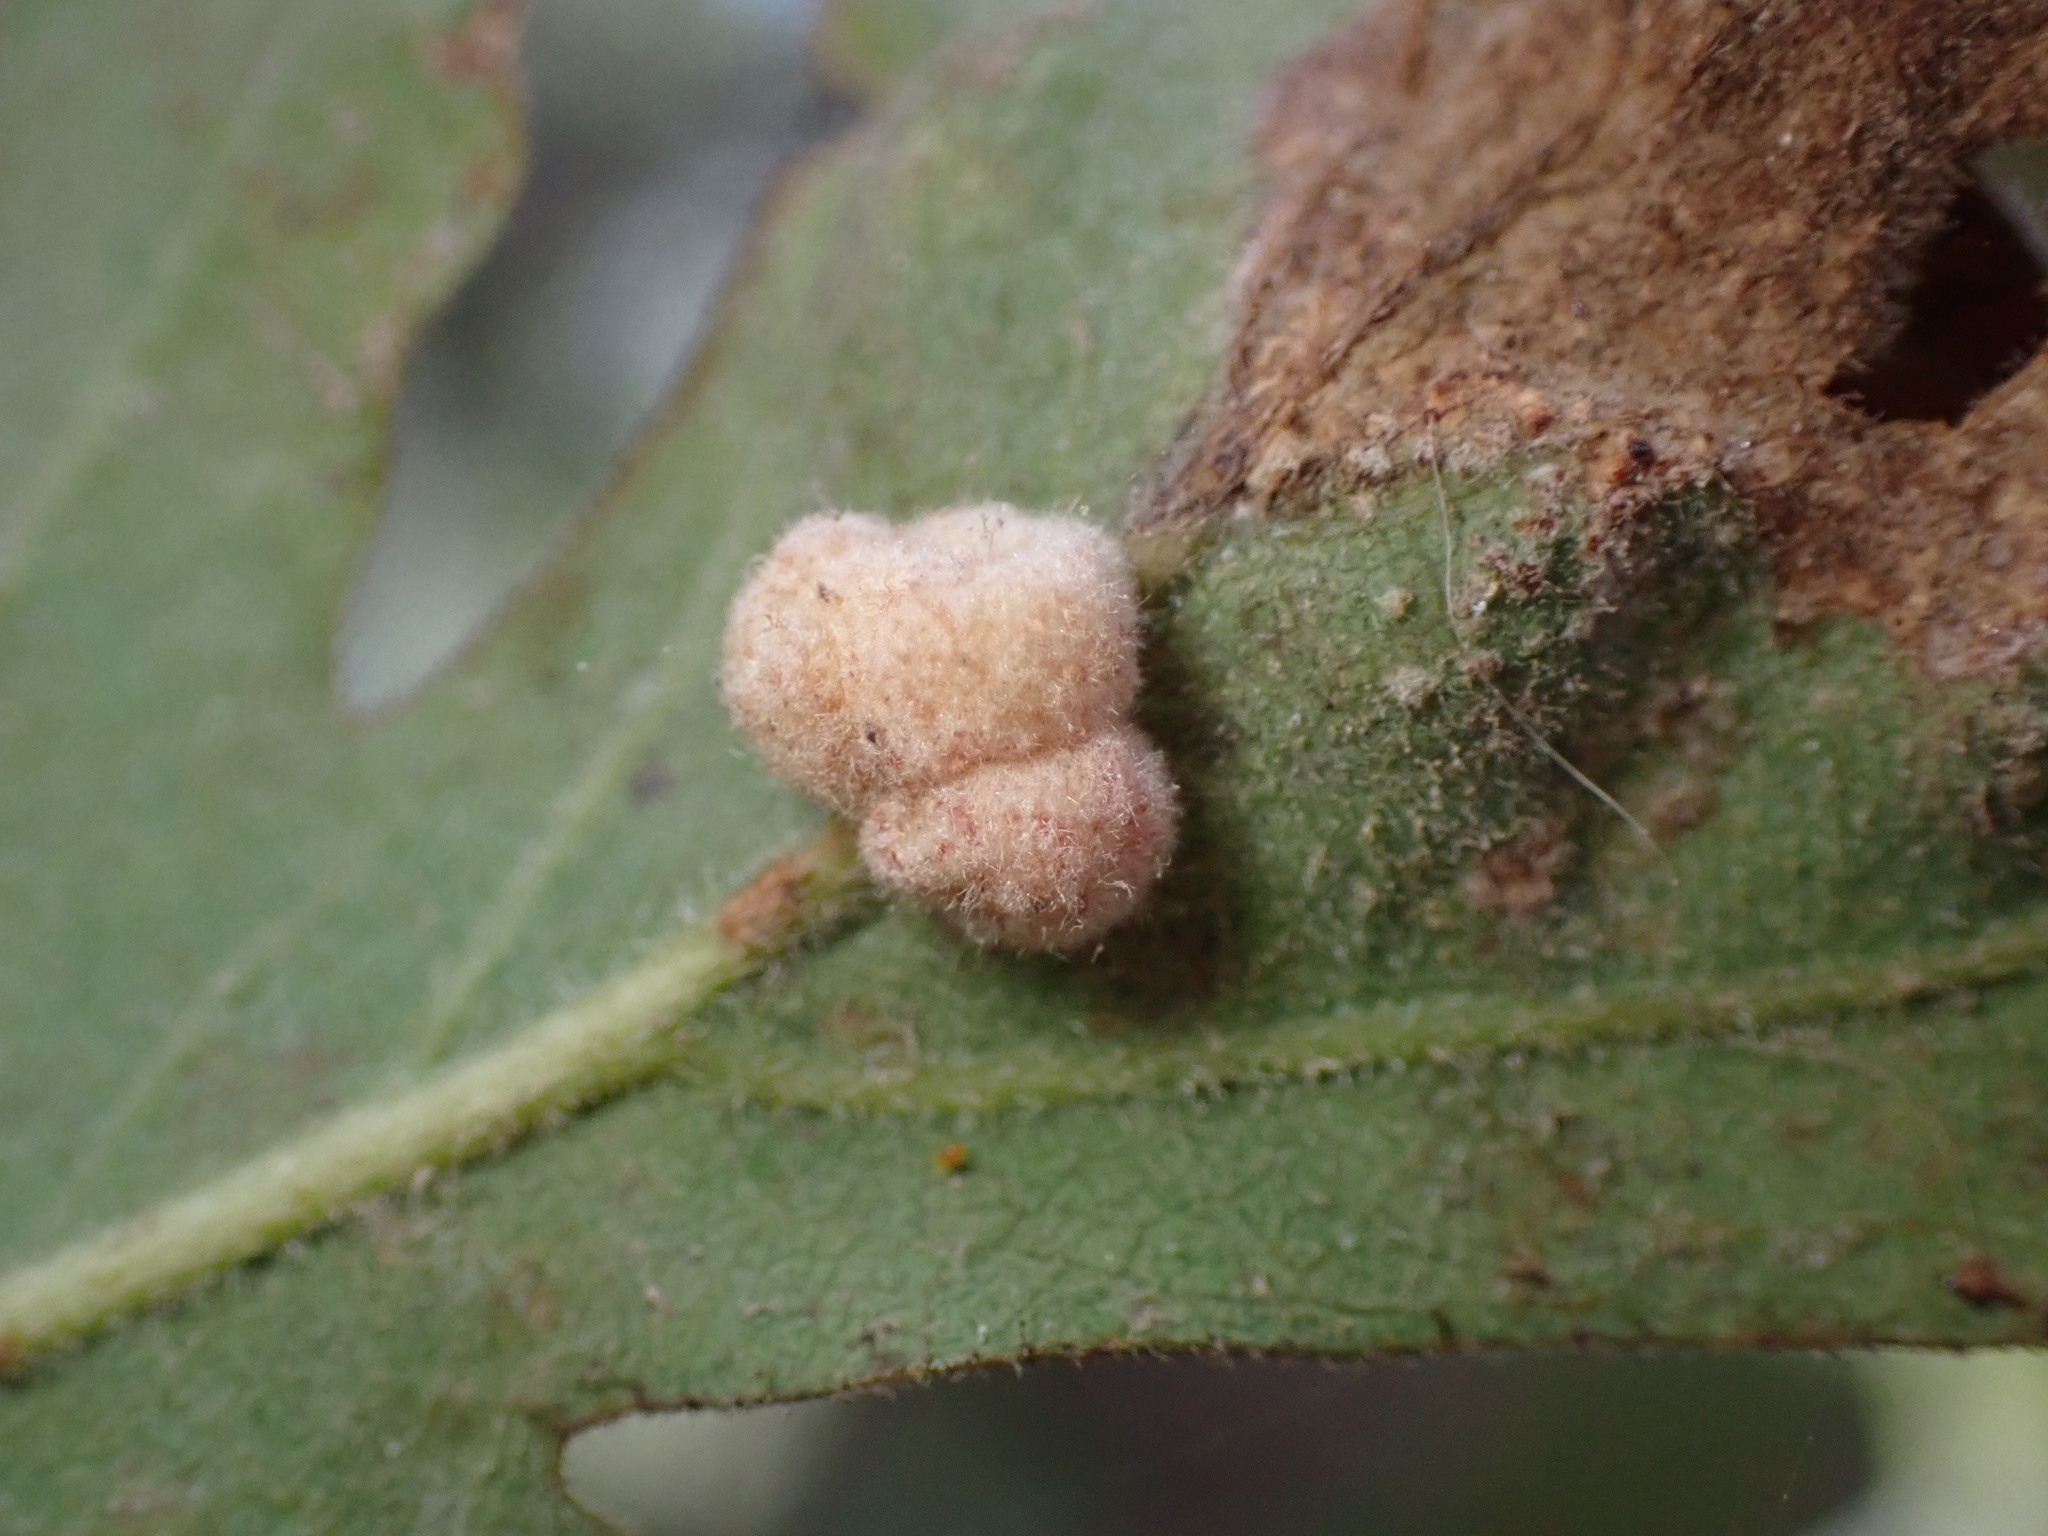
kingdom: Animalia
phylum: Arthropoda
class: Insecta
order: Hymenoptera
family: Cynipidae
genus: Andricus
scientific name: Andricus
